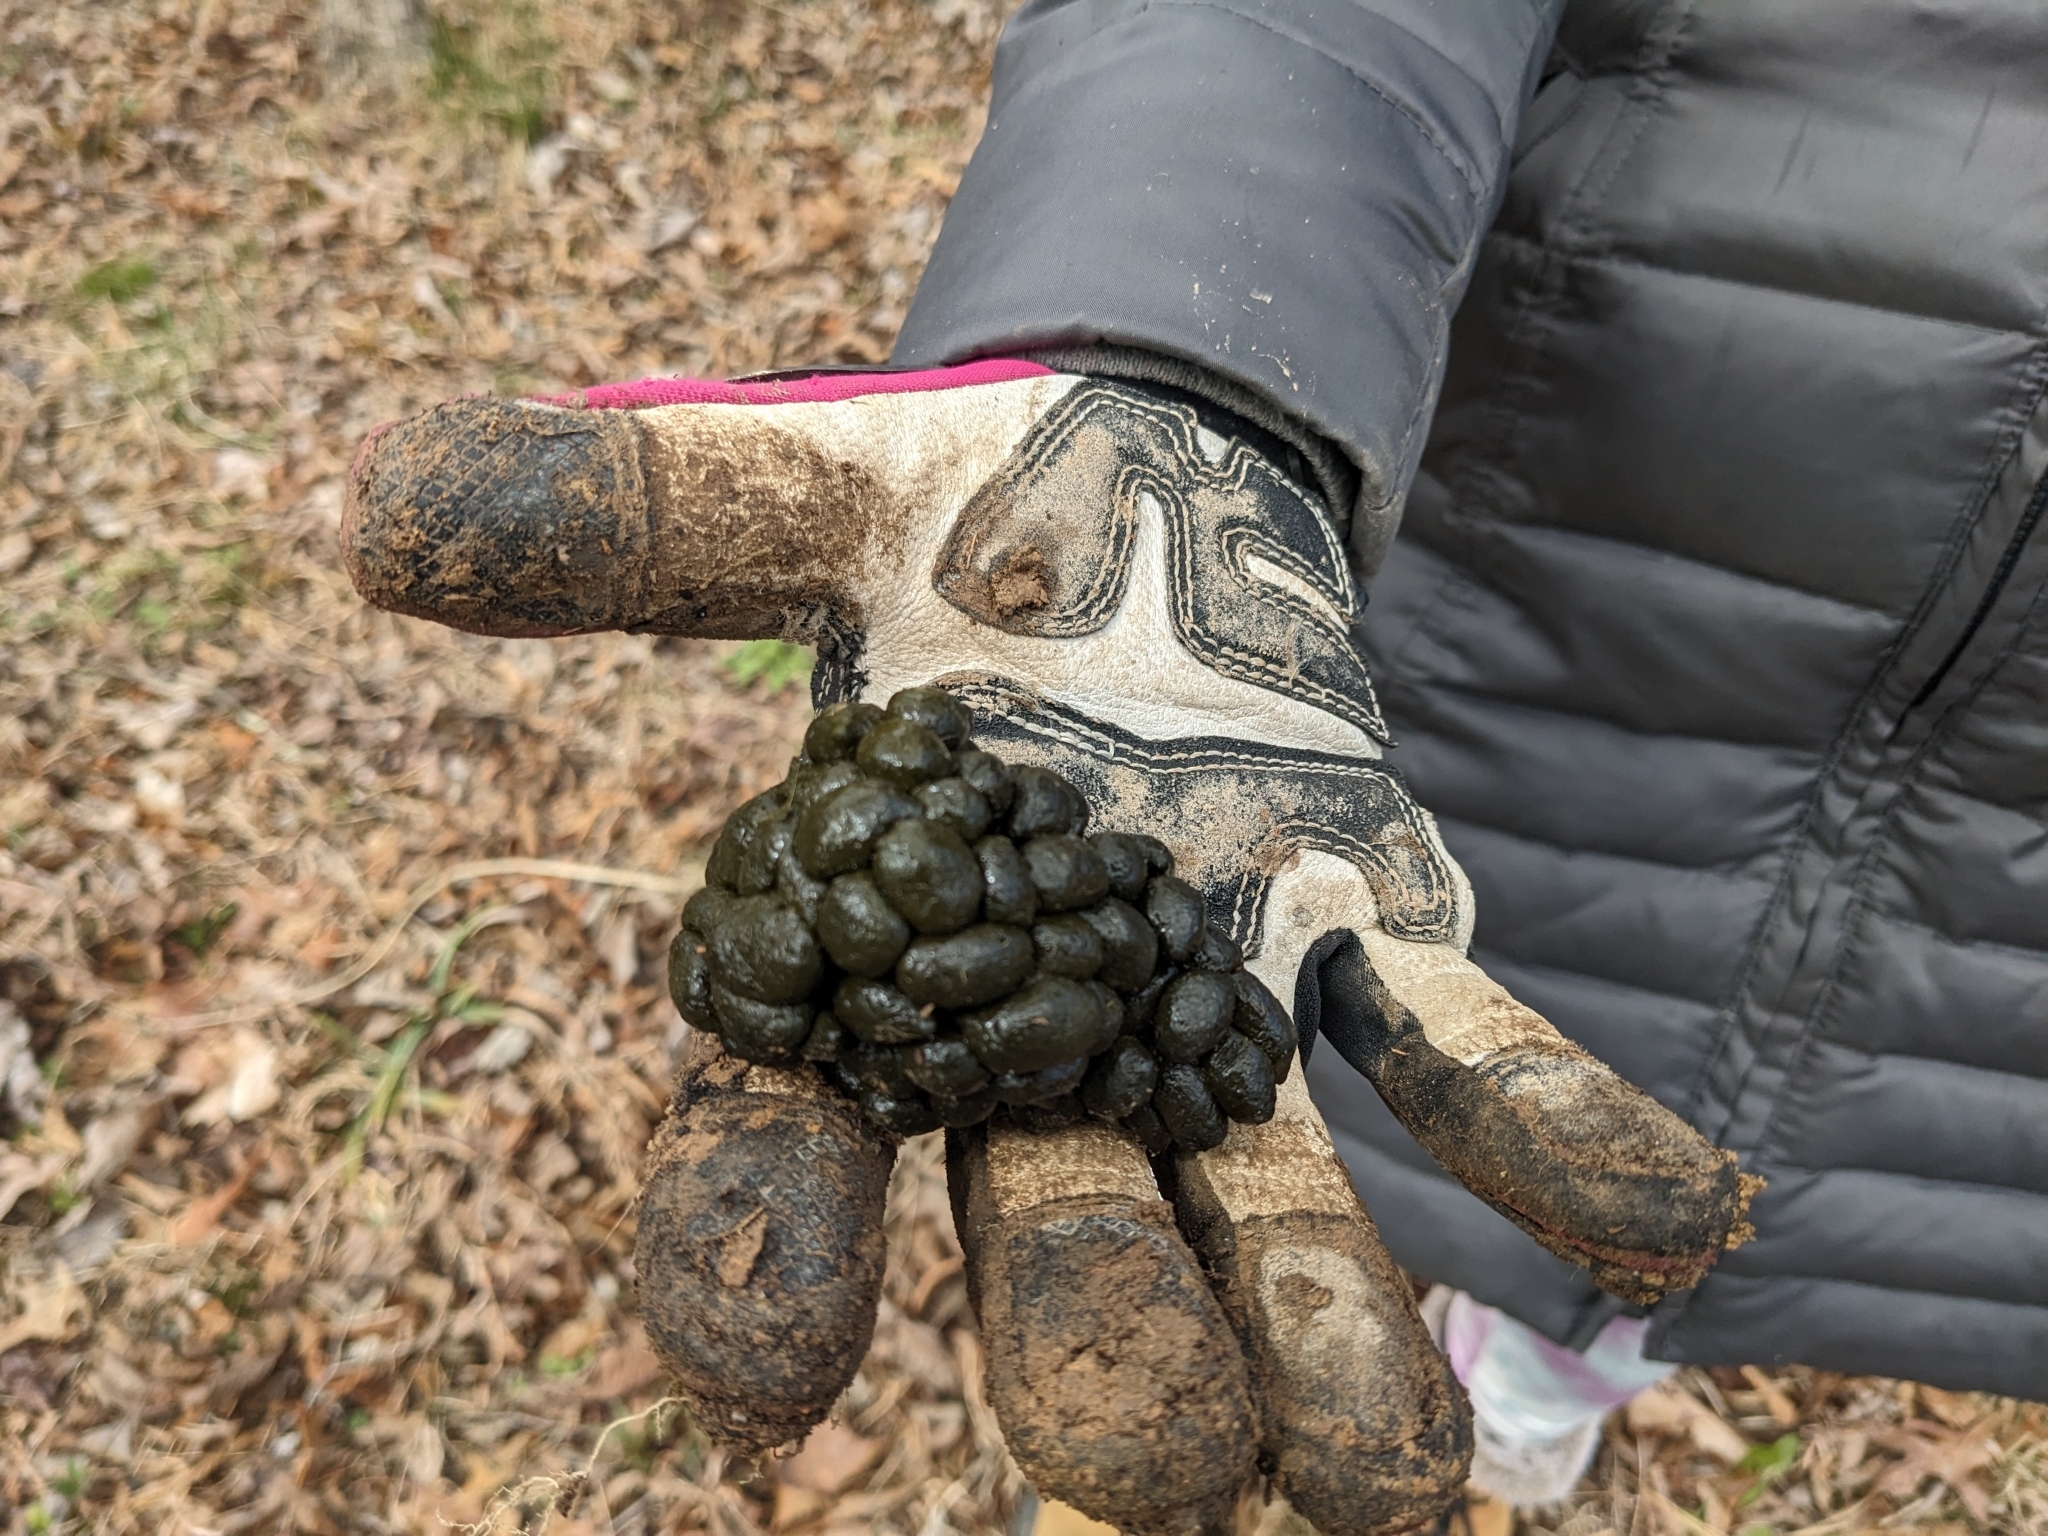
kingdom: Animalia
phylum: Chordata
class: Mammalia
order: Artiodactyla
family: Cervidae
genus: Odocoileus
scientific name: Odocoileus virginianus
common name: White-tailed deer
